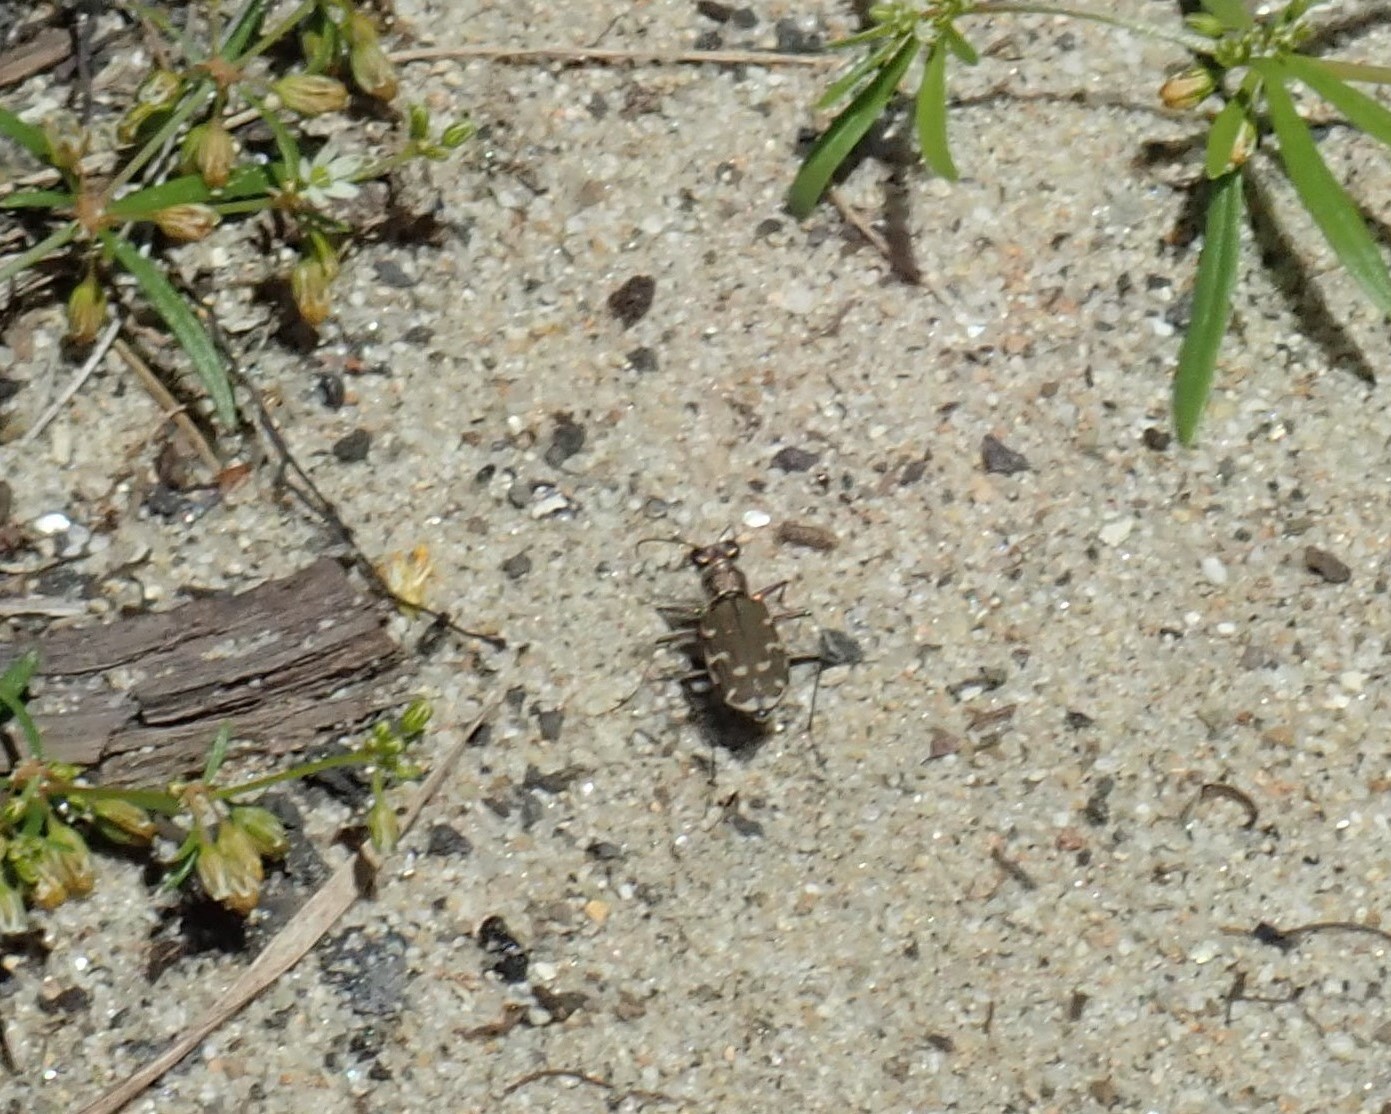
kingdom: Animalia
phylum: Arthropoda
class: Insecta
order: Coleoptera
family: Carabidae
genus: Cicindela
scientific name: Cicindela repanda
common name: Bronzed tiger beetle
